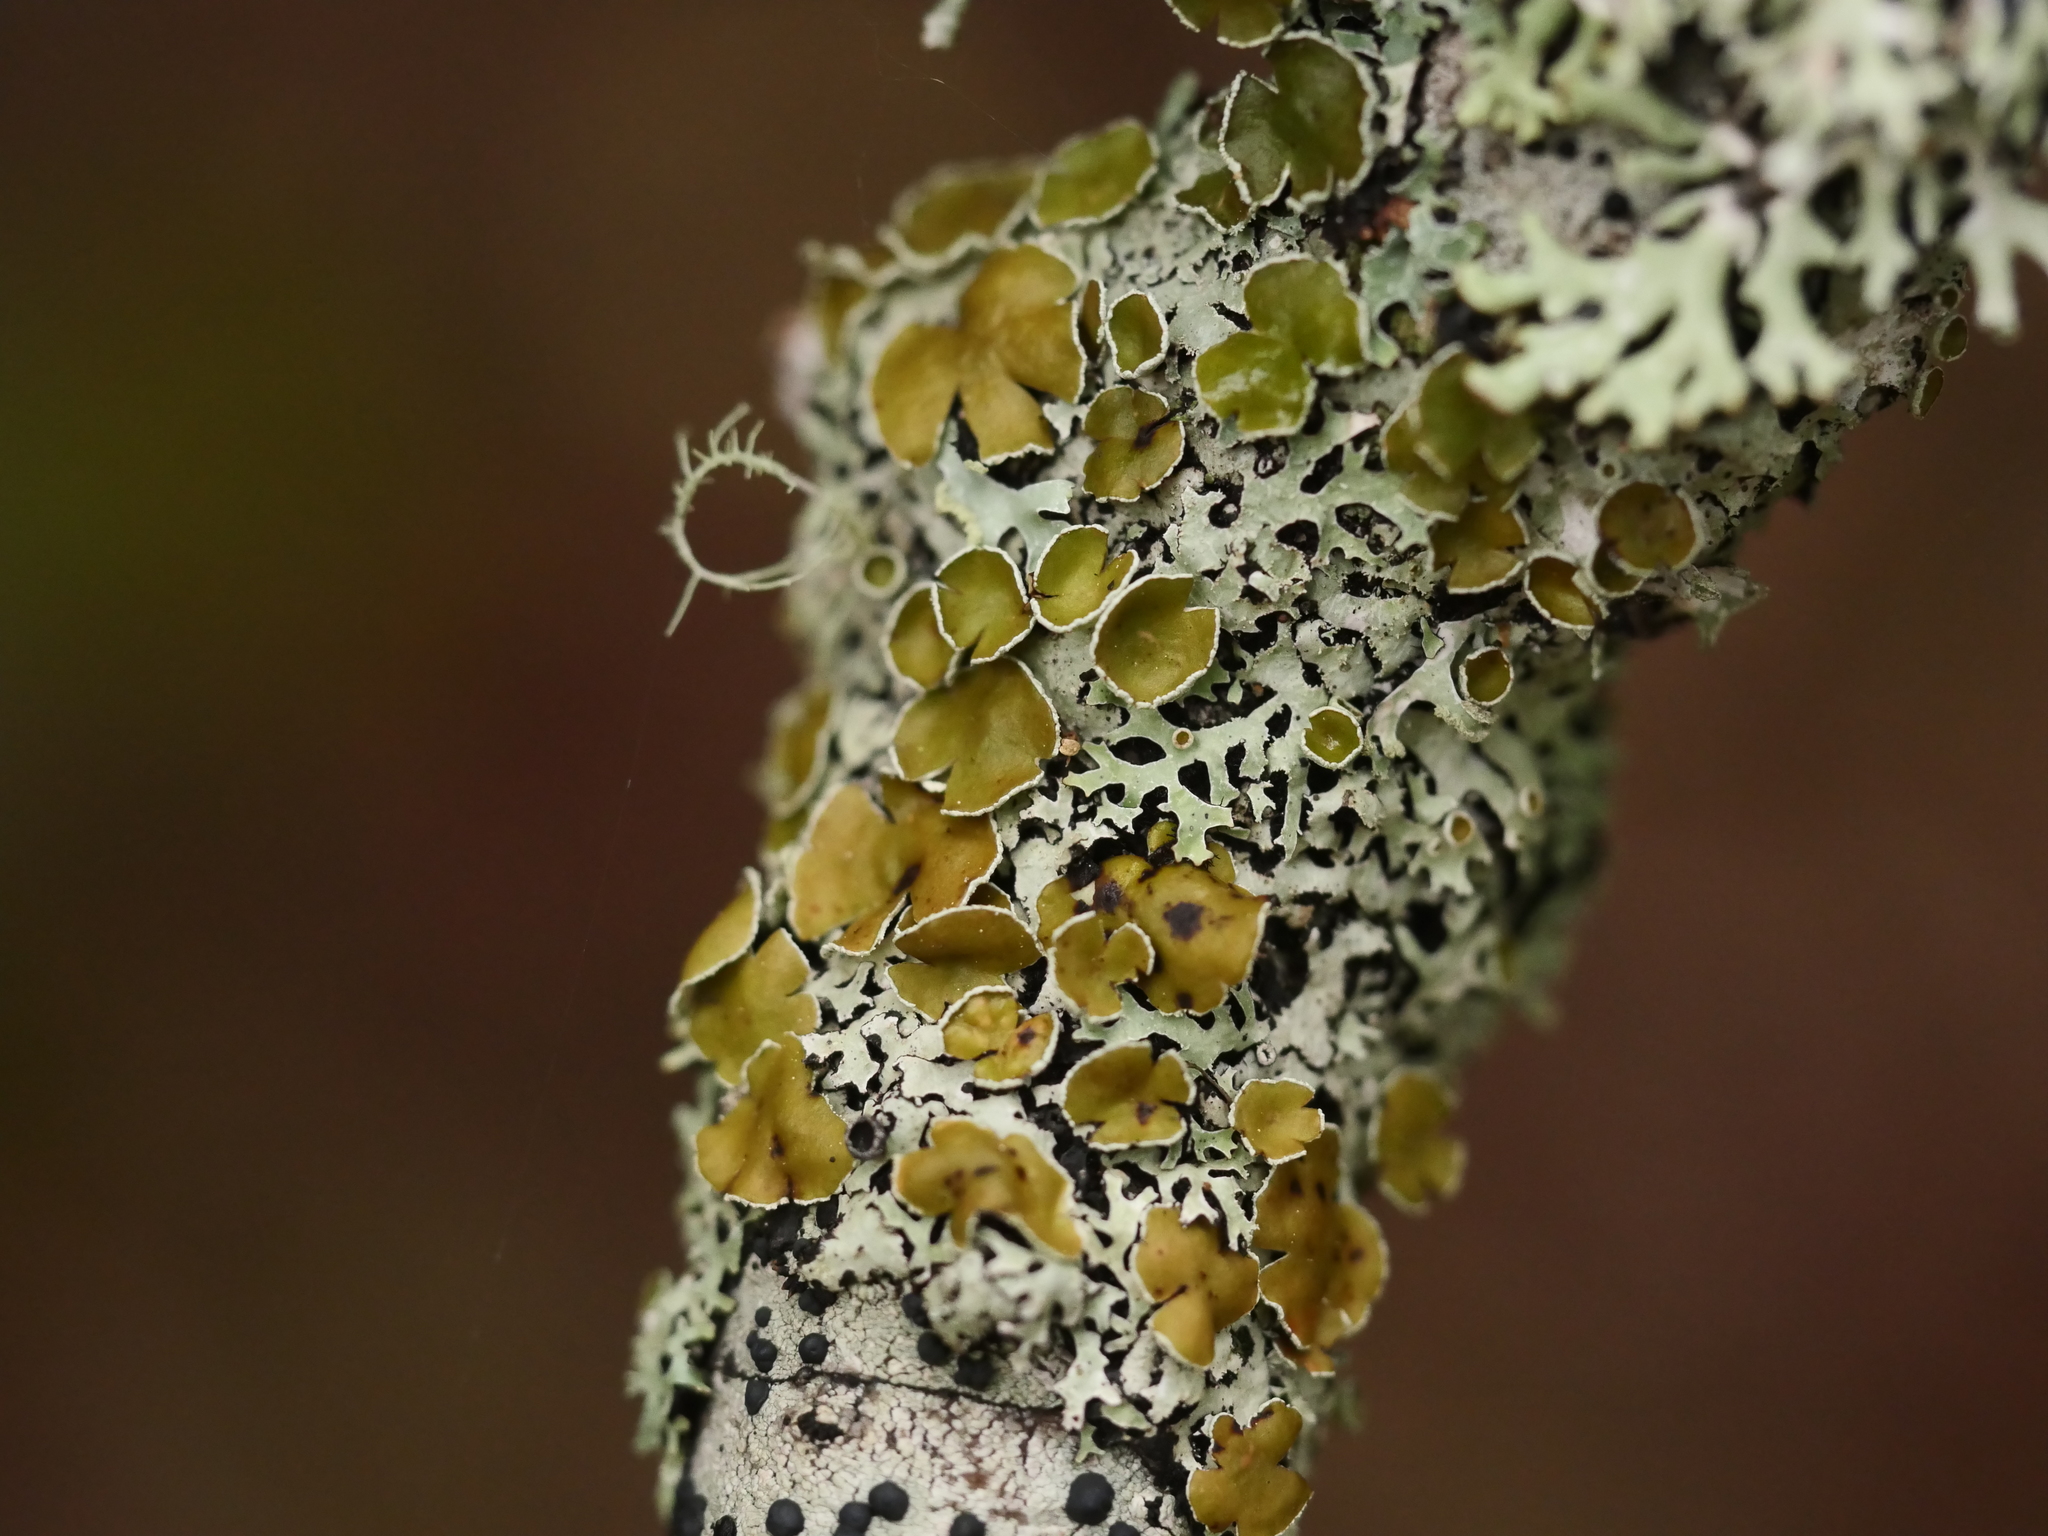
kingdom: Fungi
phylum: Ascomycota
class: Lecanoromycetes
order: Lecanorales
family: Parmeliaceae
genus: Parmelia
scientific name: Parmelia squarrosa
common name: Bottle brush shield lichen
